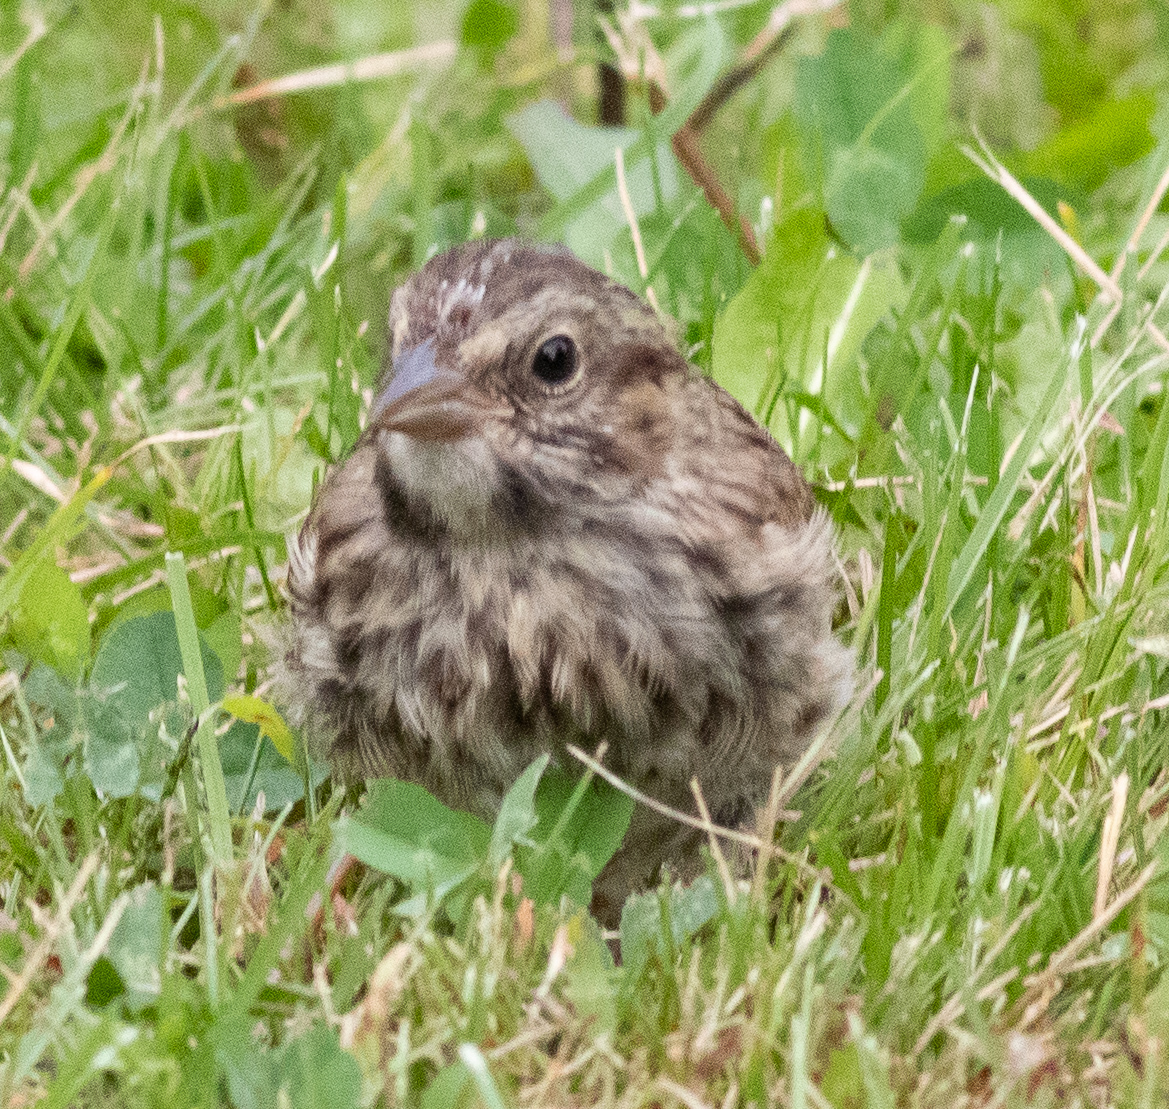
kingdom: Animalia
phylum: Chordata
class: Aves
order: Passeriformes
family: Passerellidae
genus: Melospiza
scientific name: Melospiza melodia
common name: Song sparrow
